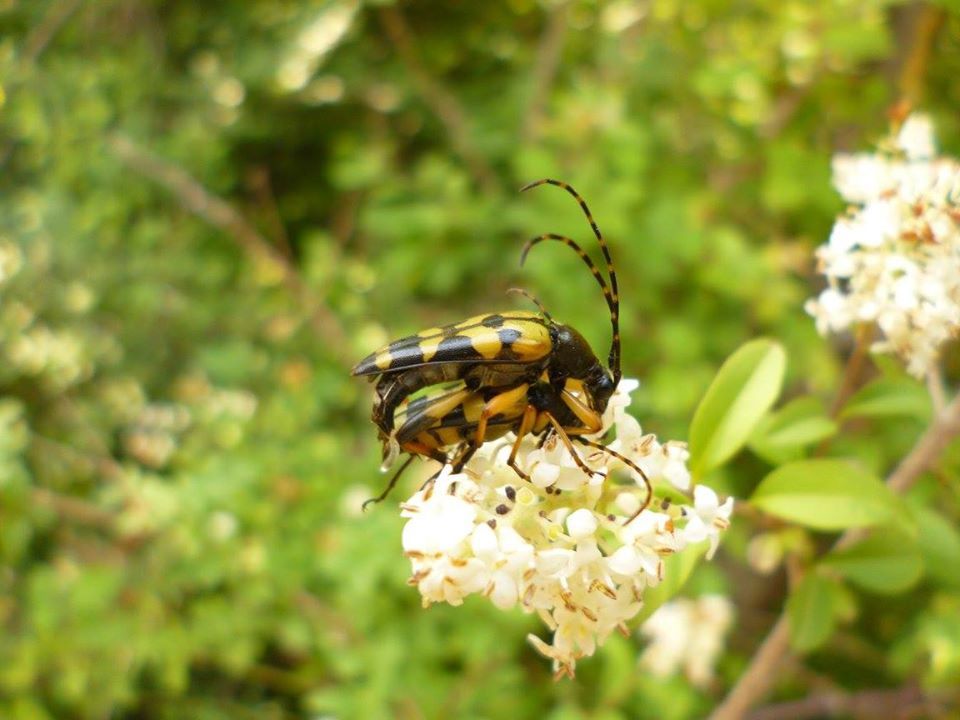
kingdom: Animalia
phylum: Arthropoda
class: Insecta
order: Coleoptera
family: Cerambycidae
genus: Rutpela
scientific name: Rutpela maculata
